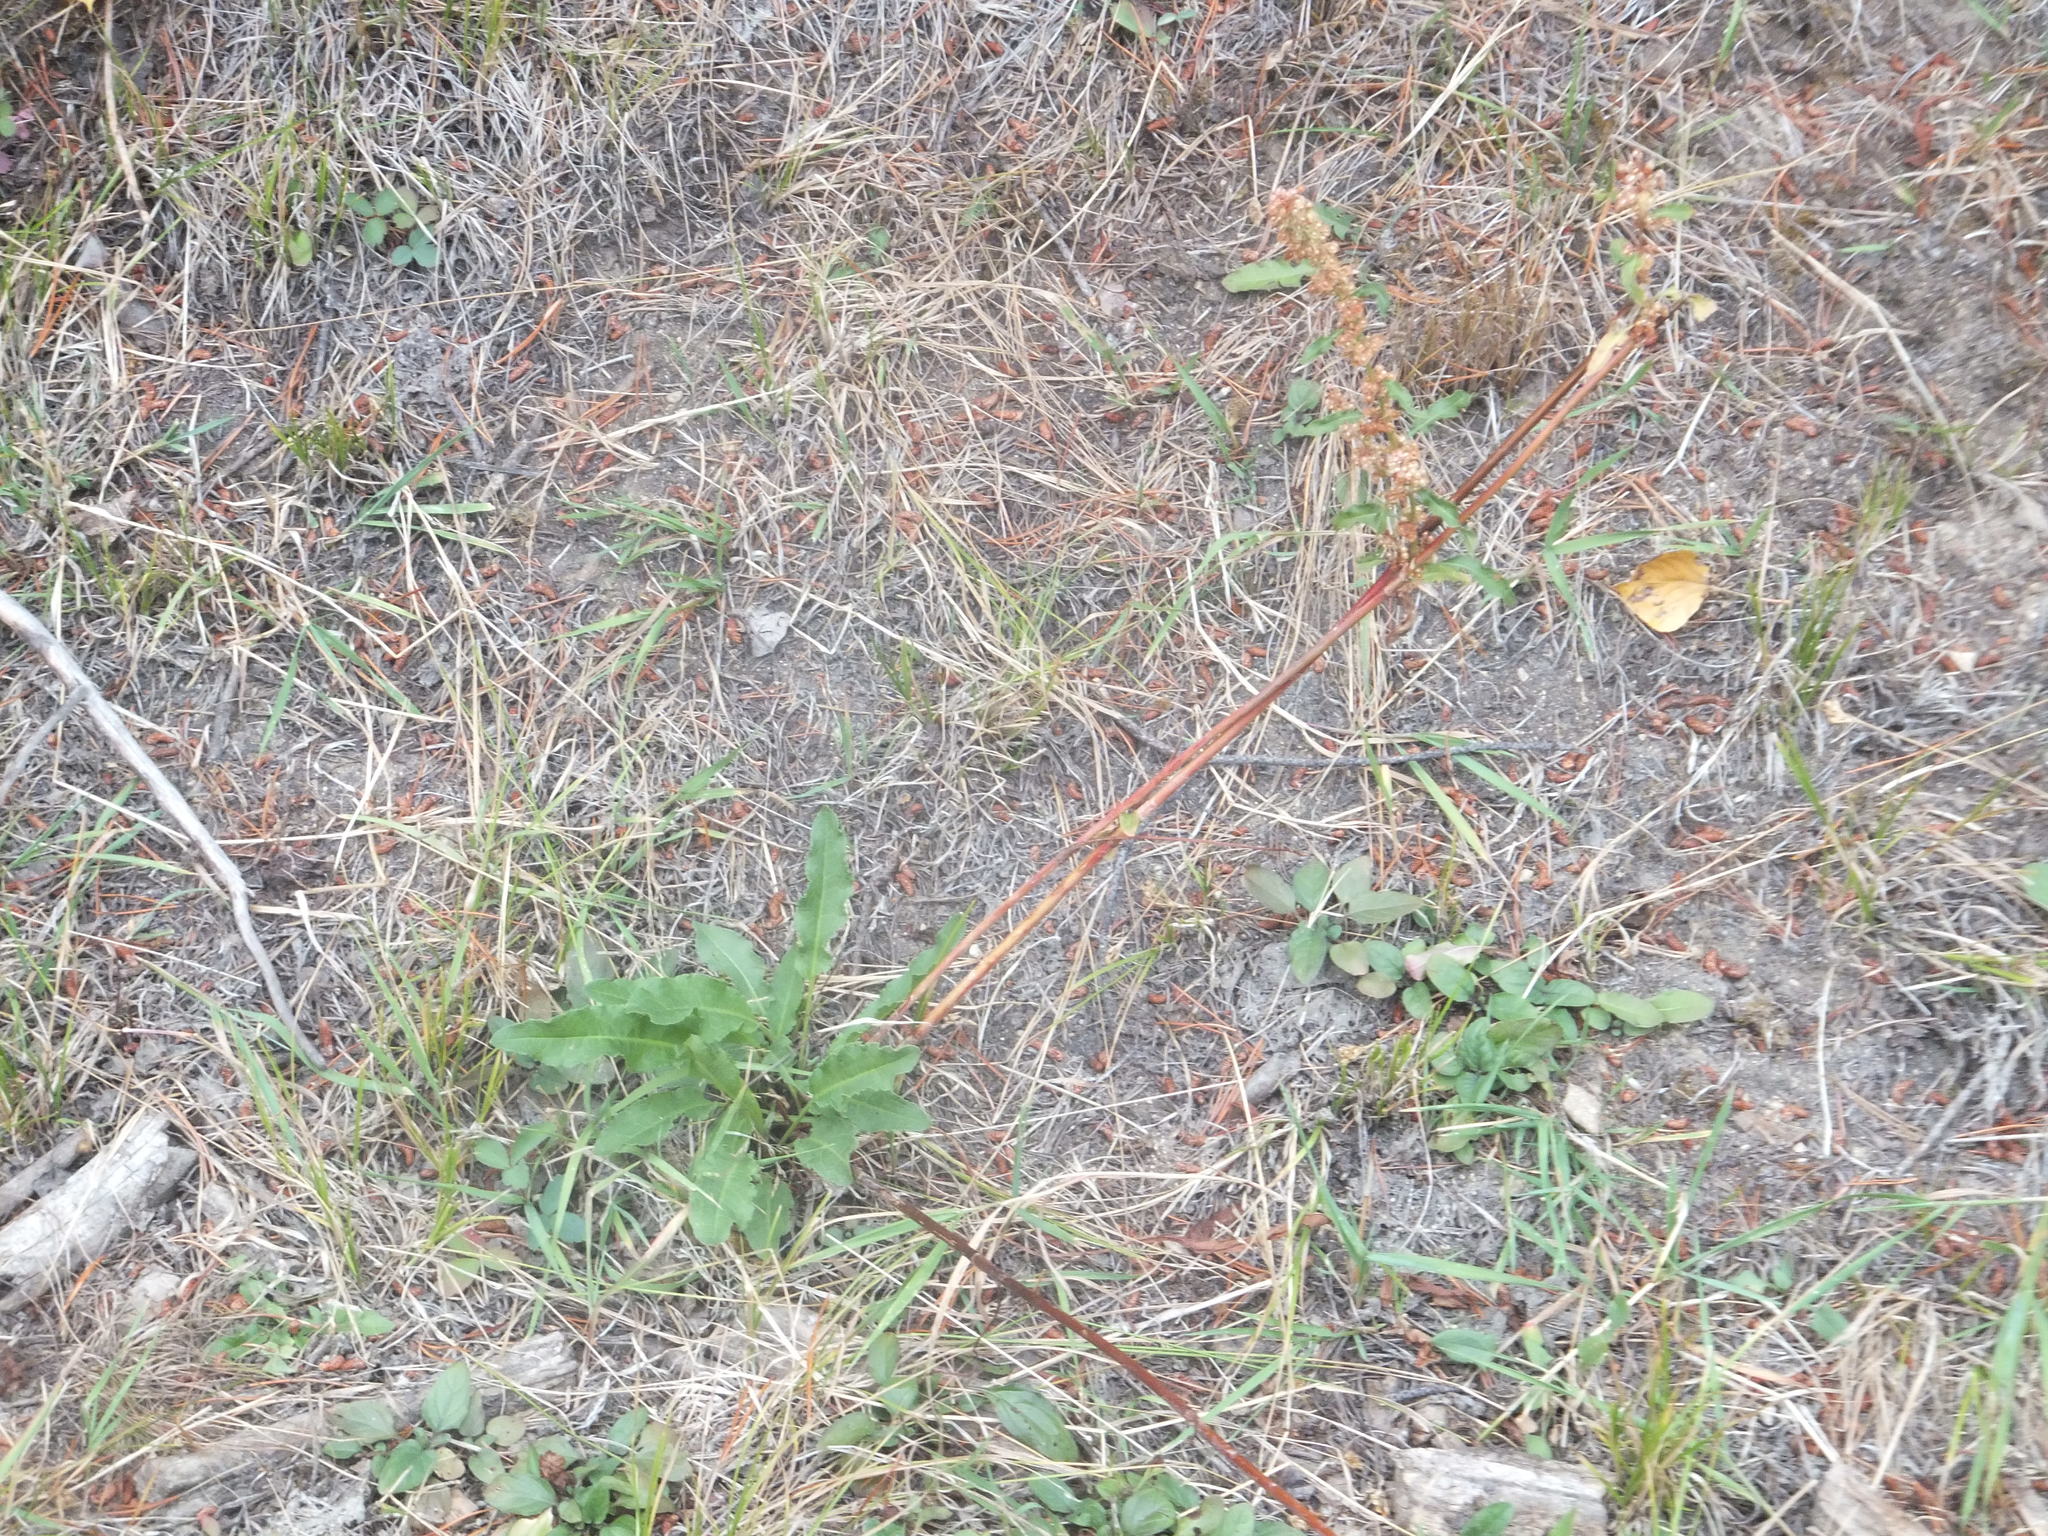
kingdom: Plantae
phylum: Tracheophyta
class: Magnoliopsida
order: Caryophyllales
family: Polygonaceae
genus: Rumex
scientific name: Rumex crispus
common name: Curled dock
